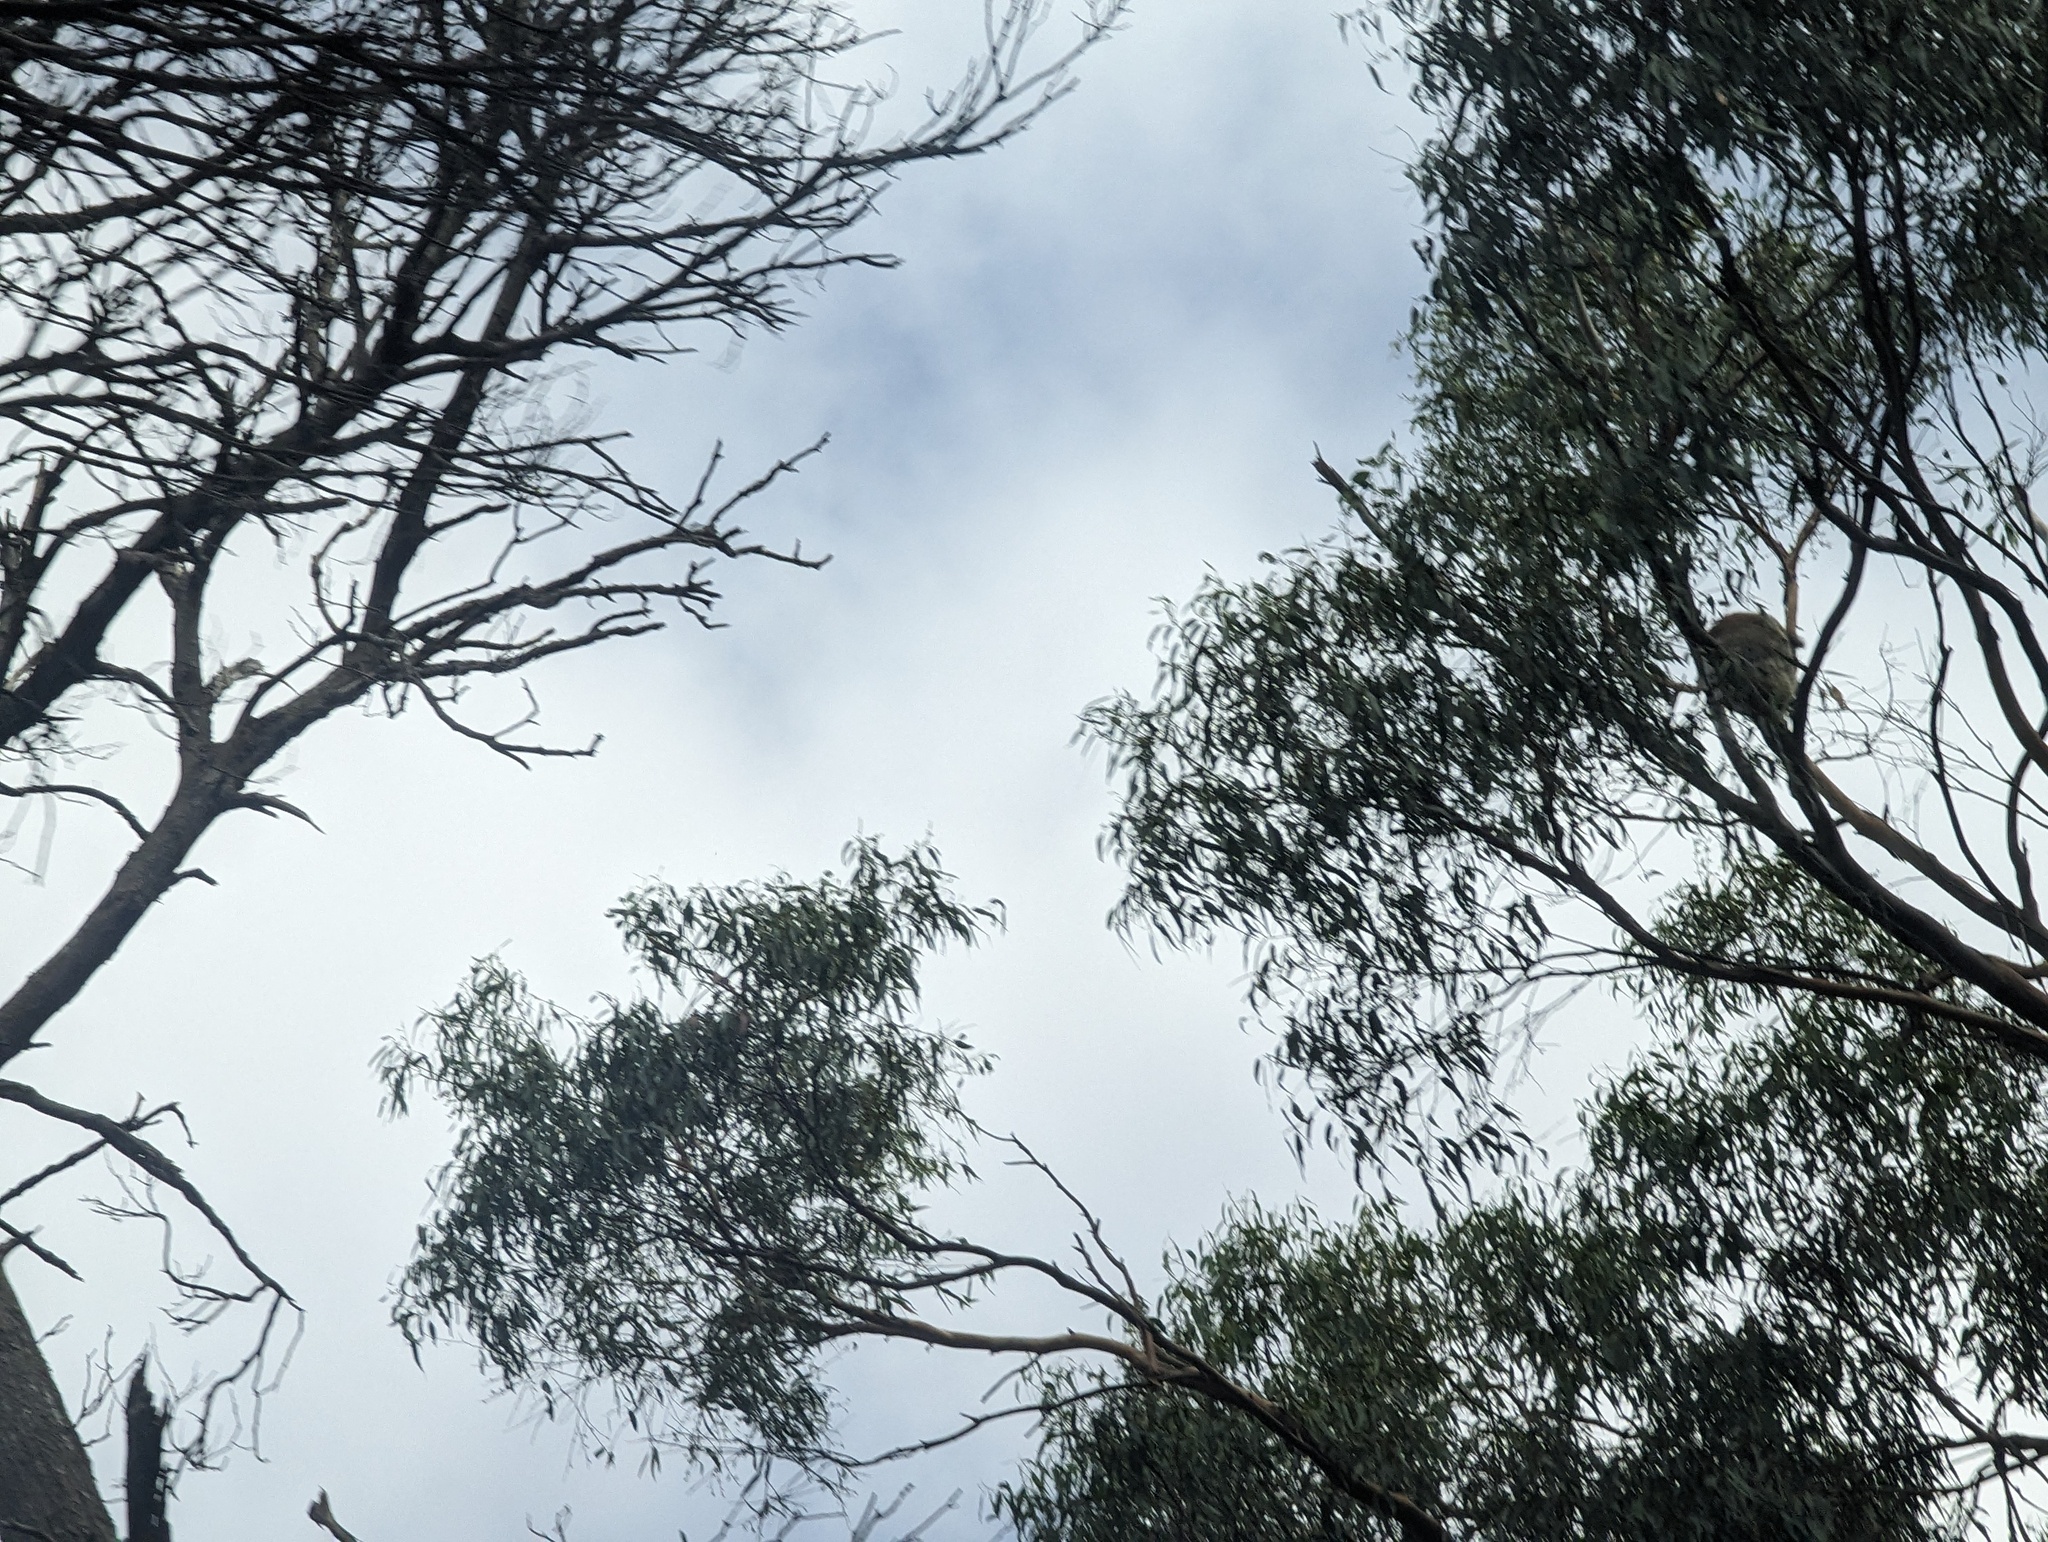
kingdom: Animalia
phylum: Chordata
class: Mammalia
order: Diprotodontia
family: Phascolarctidae
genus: Phascolarctos
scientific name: Phascolarctos cinereus
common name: Koala
